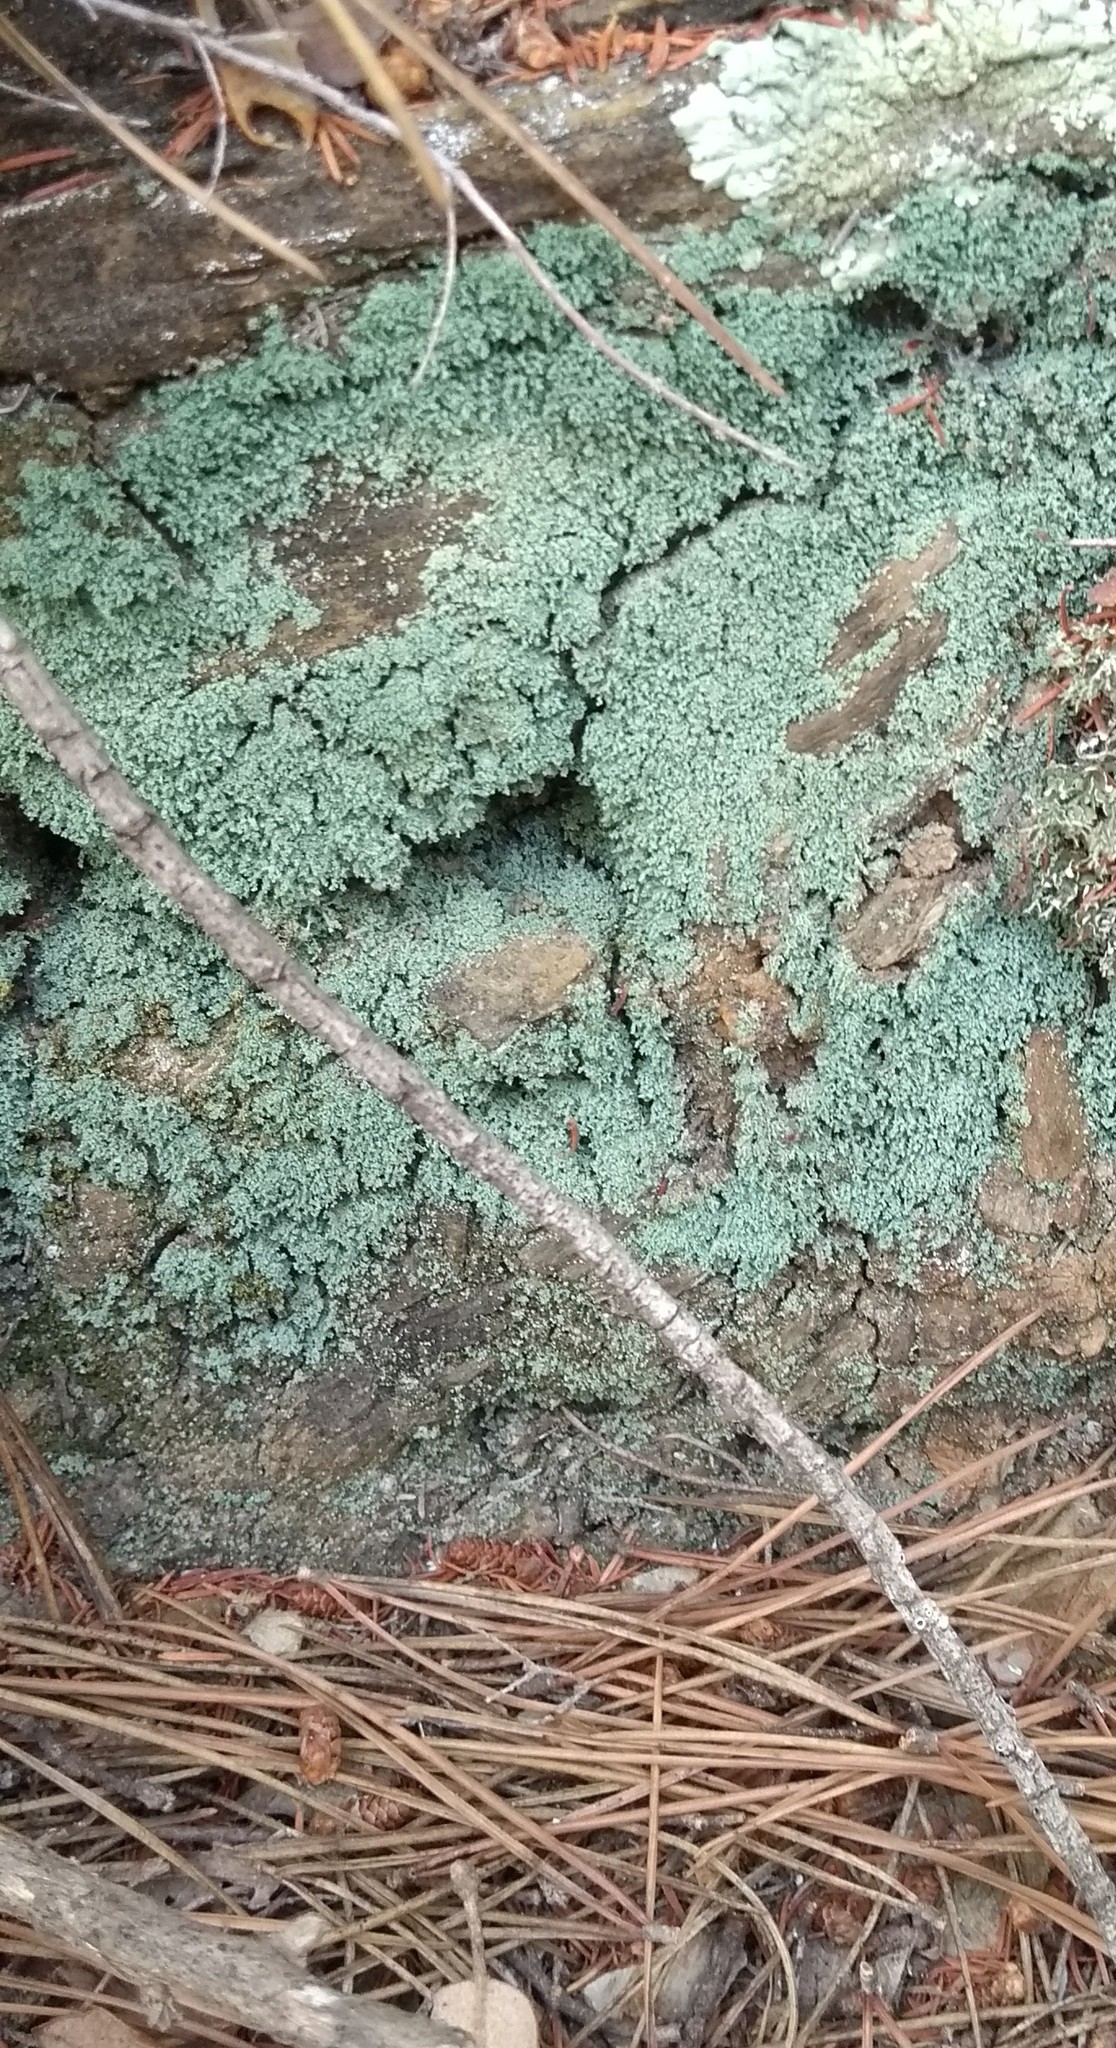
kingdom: Fungi
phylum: Ascomycota
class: Lecanoromycetes
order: Teloschistales
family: Leprocaulaceae
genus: Leprocaulon
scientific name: Leprocaulon quisquiliare
